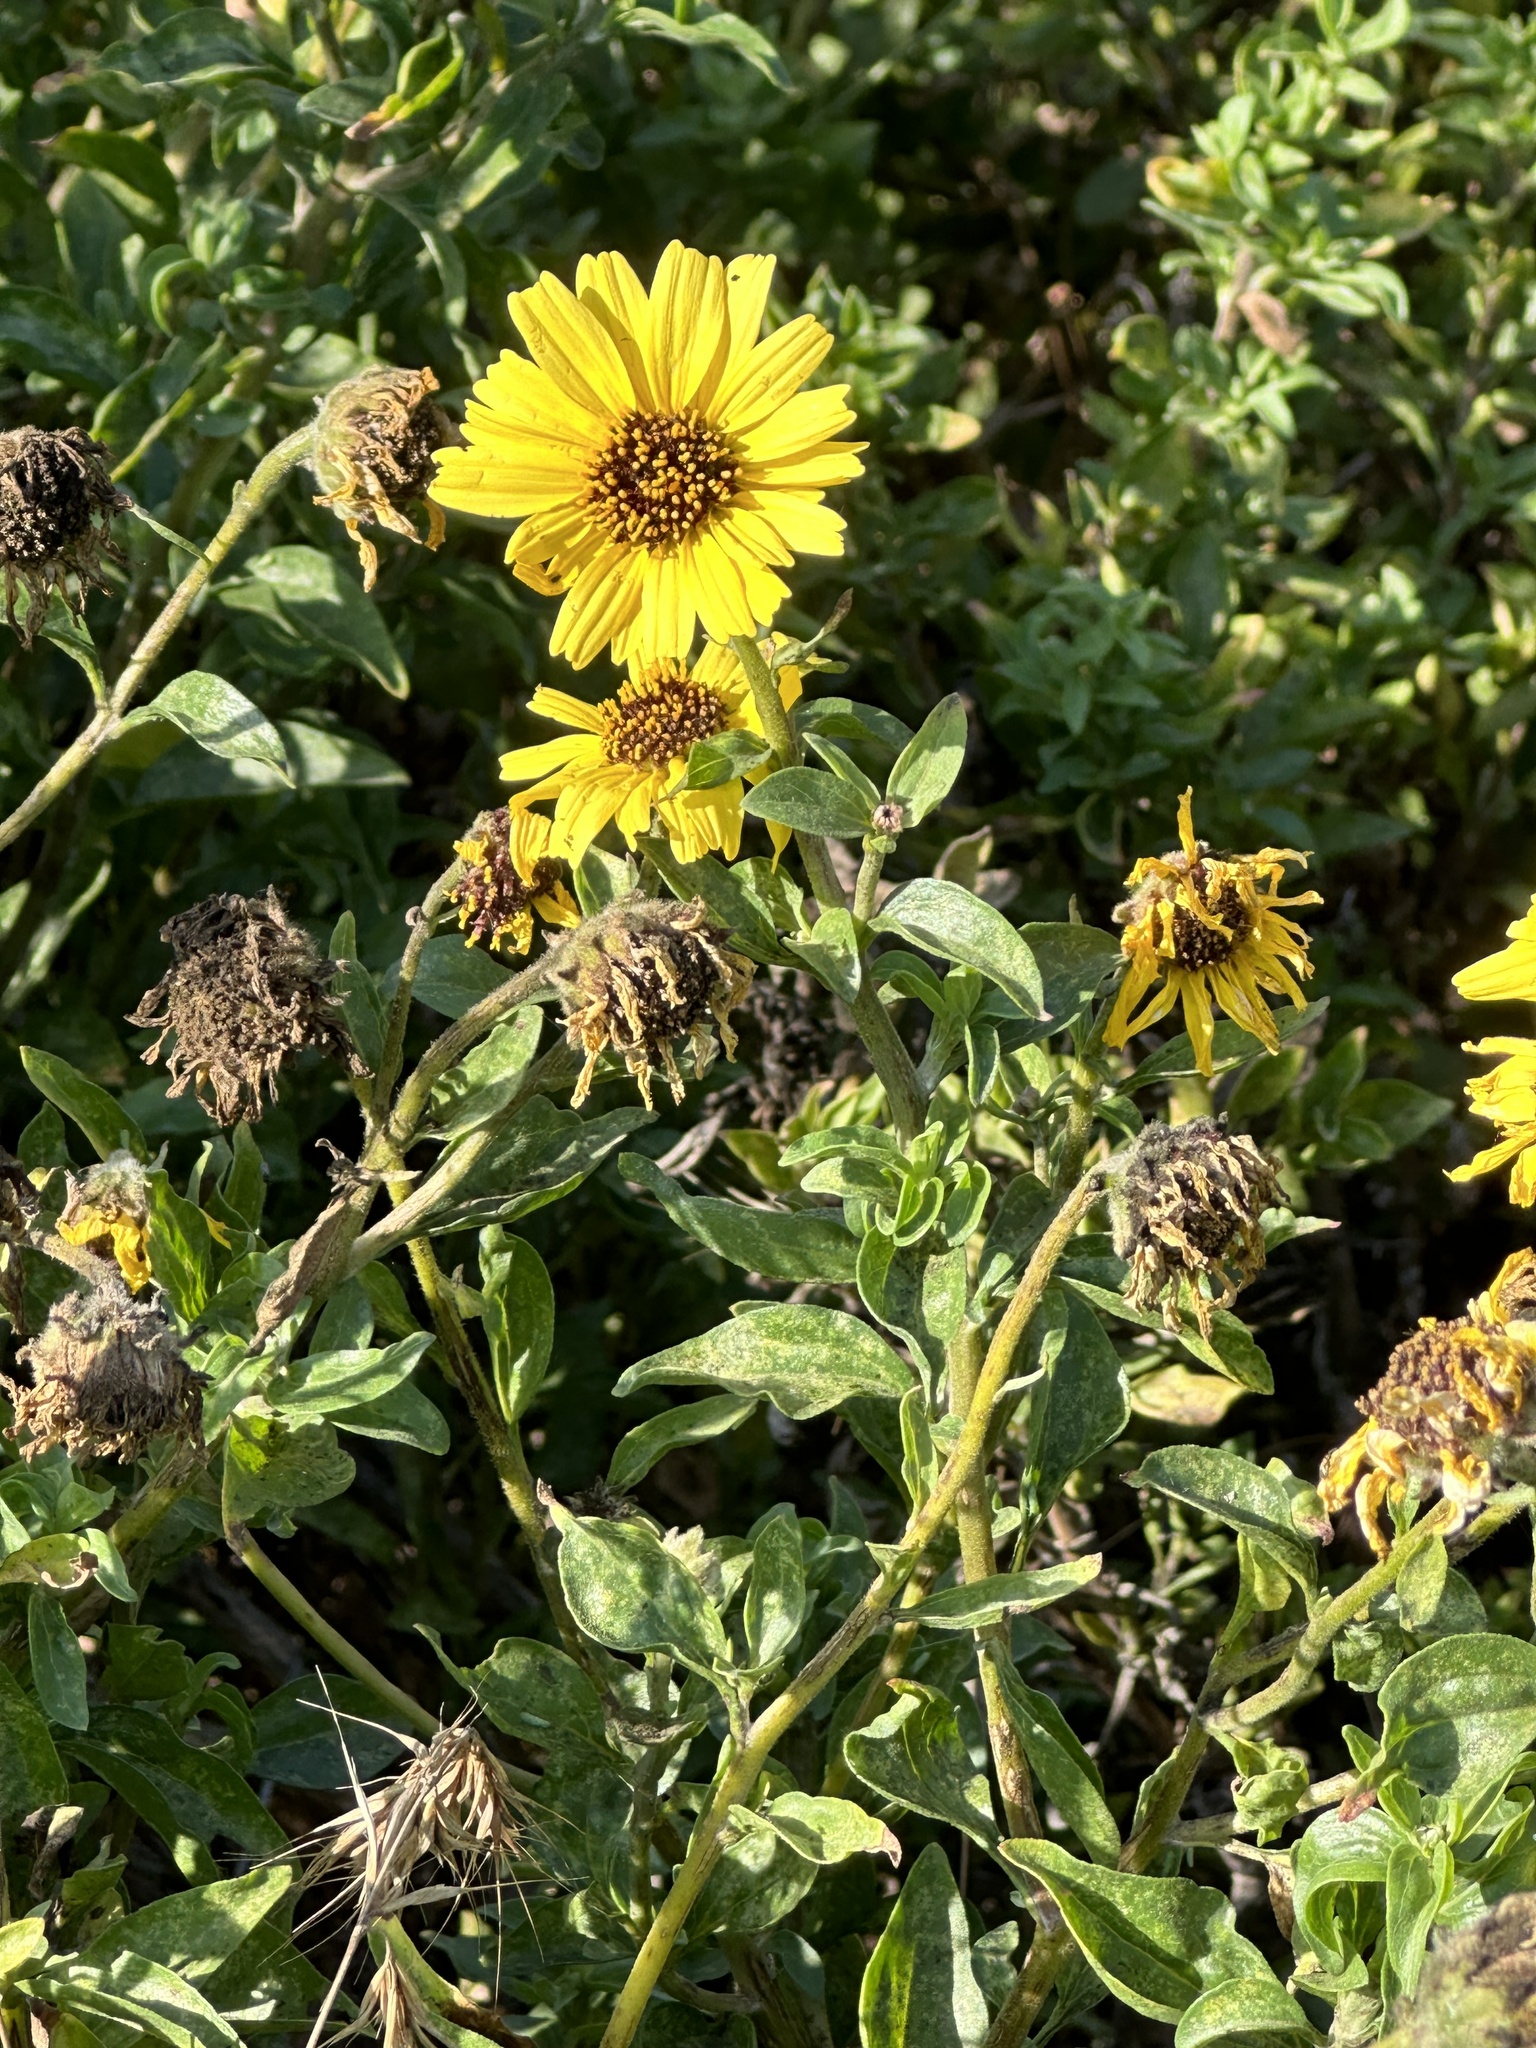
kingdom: Plantae
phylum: Tracheophyta
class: Magnoliopsida
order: Asterales
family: Asteraceae
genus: Encelia
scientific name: Encelia californica
